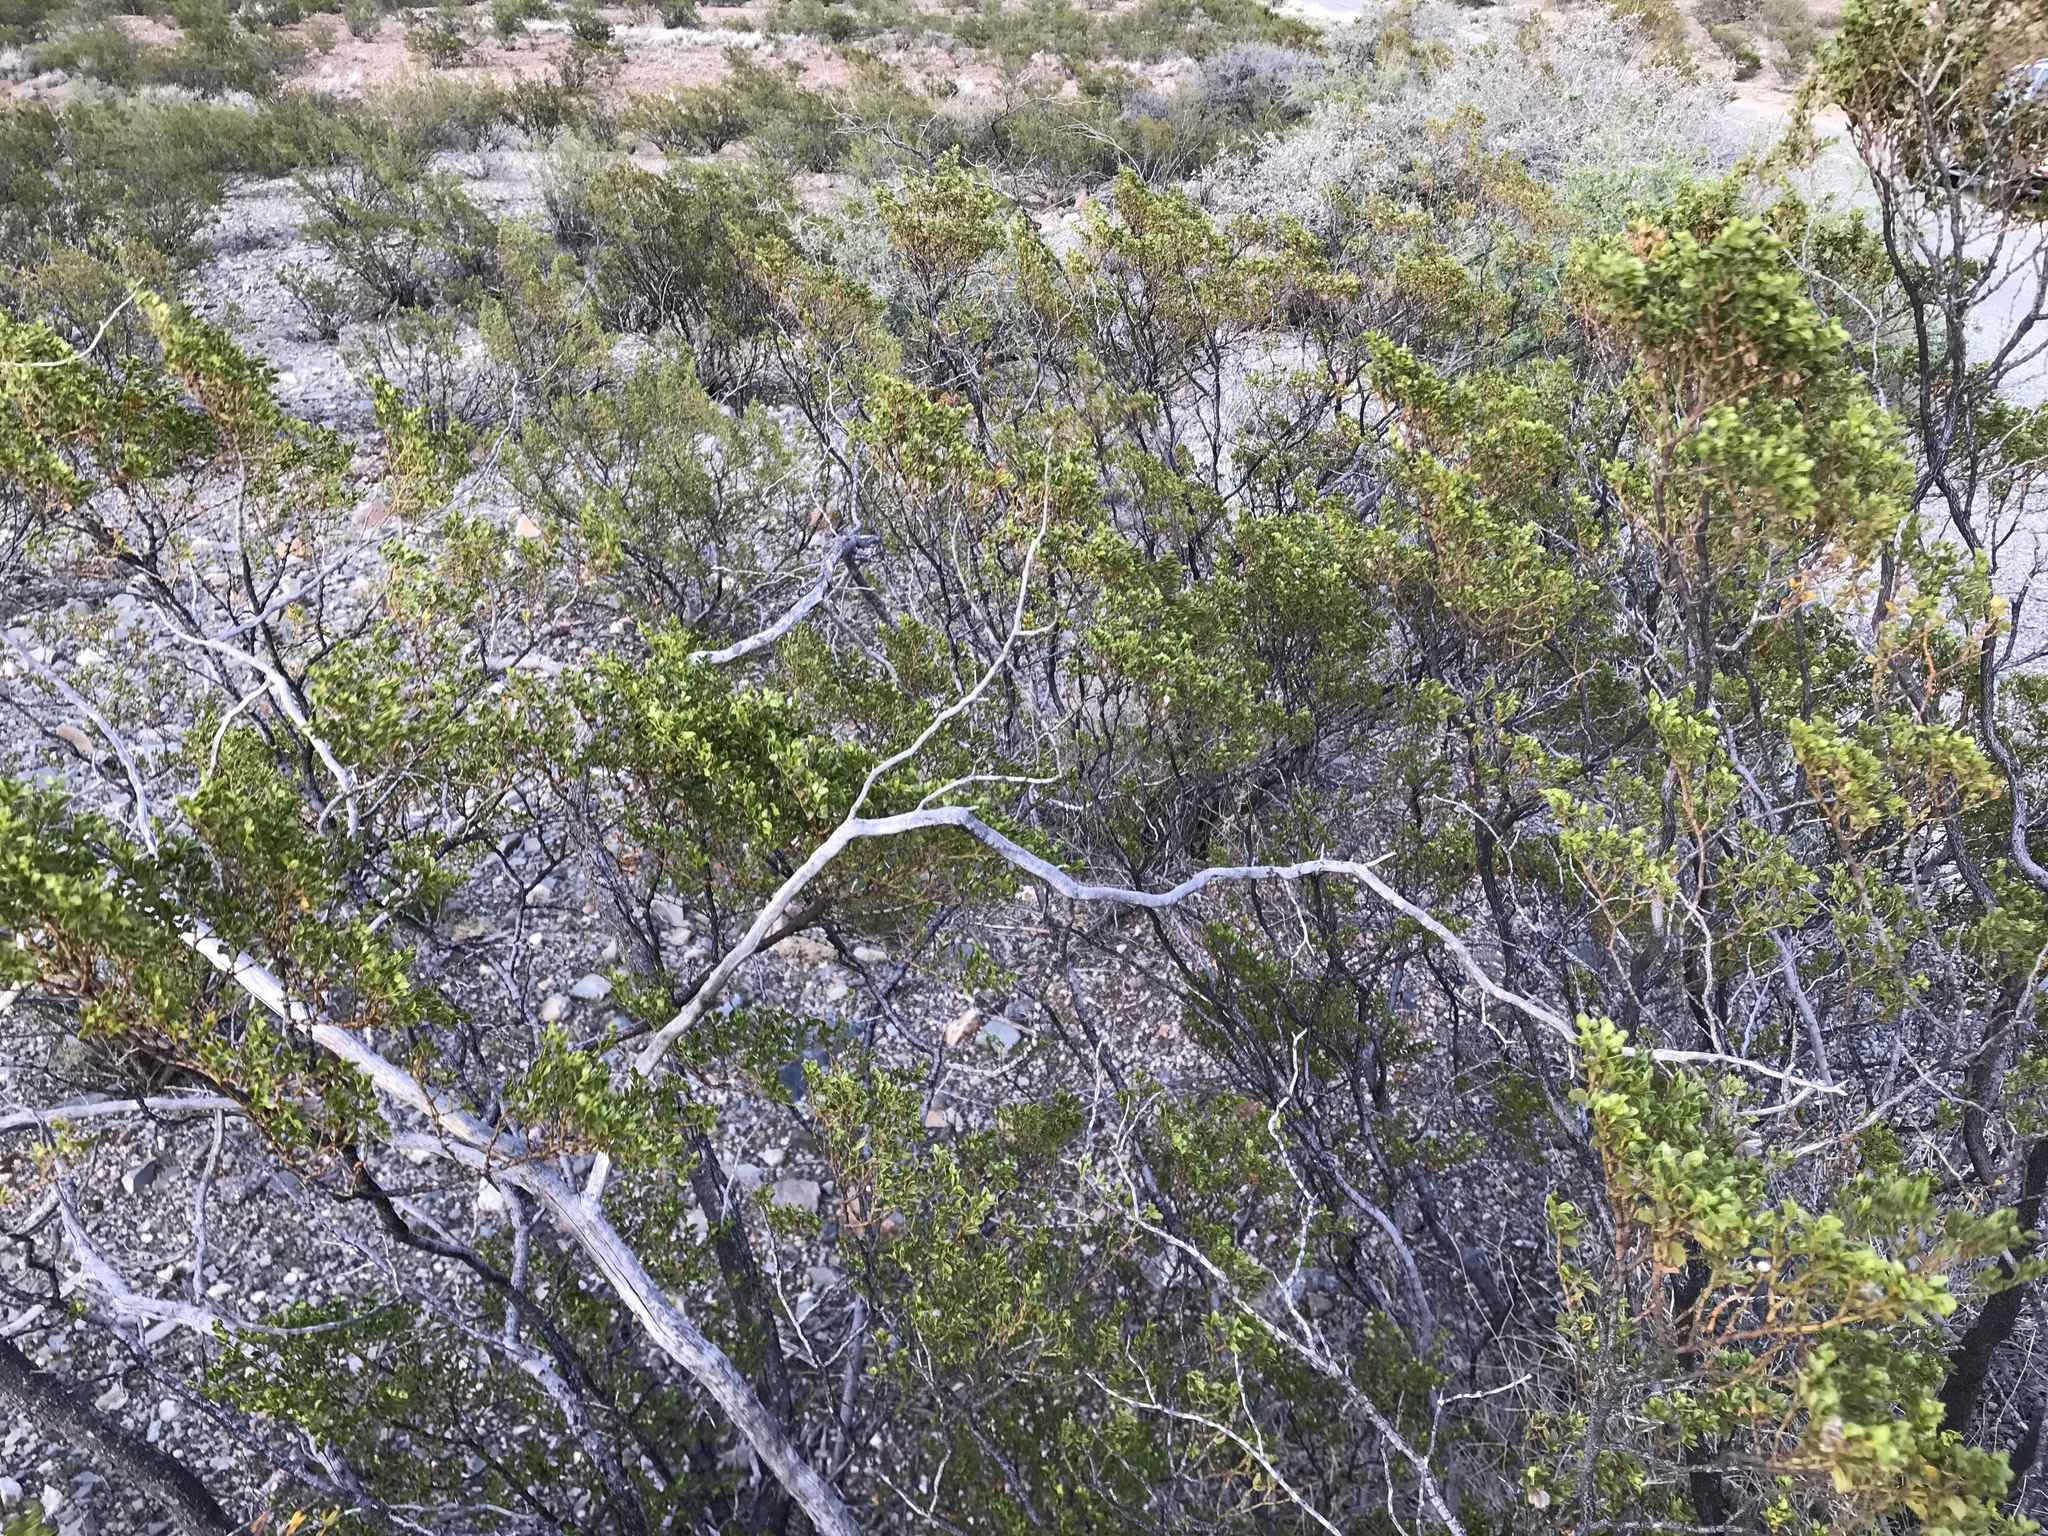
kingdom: Plantae
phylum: Tracheophyta
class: Magnoliopsida
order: Zygophyllales
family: Zygophyllaceae
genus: Larrea
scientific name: Larrea tridentata
